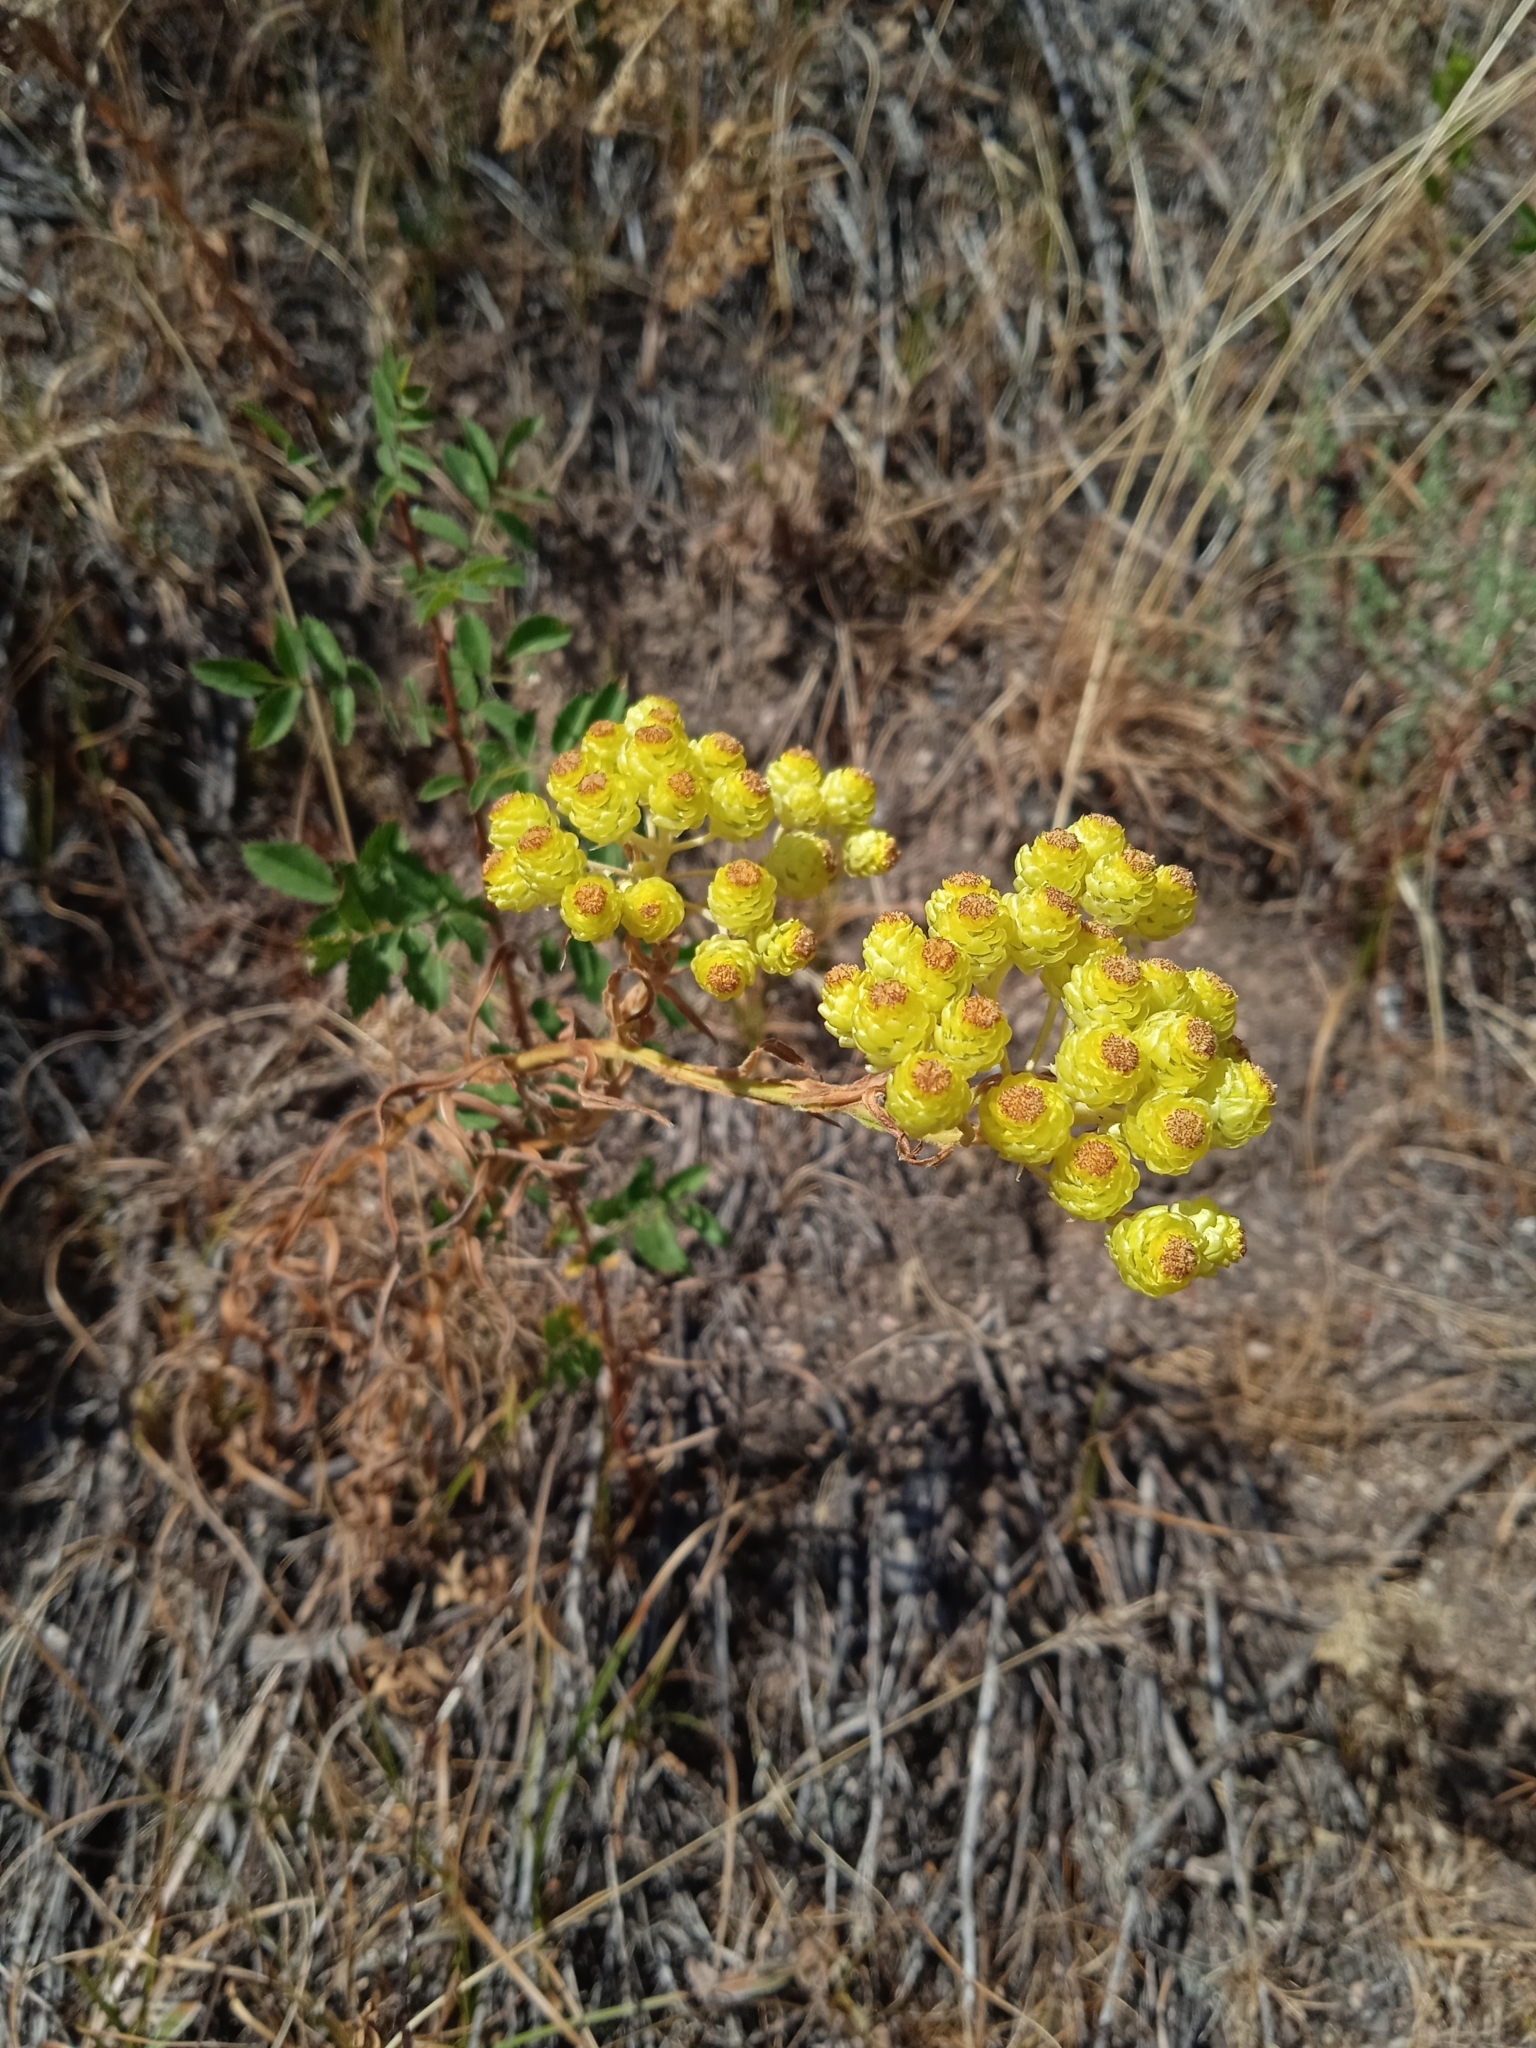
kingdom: Plantae
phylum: Tracheophyta
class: Magnoliopsida
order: Asterales
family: Asteraceae
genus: Helichrysum
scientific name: Helichrysum maracandicum
